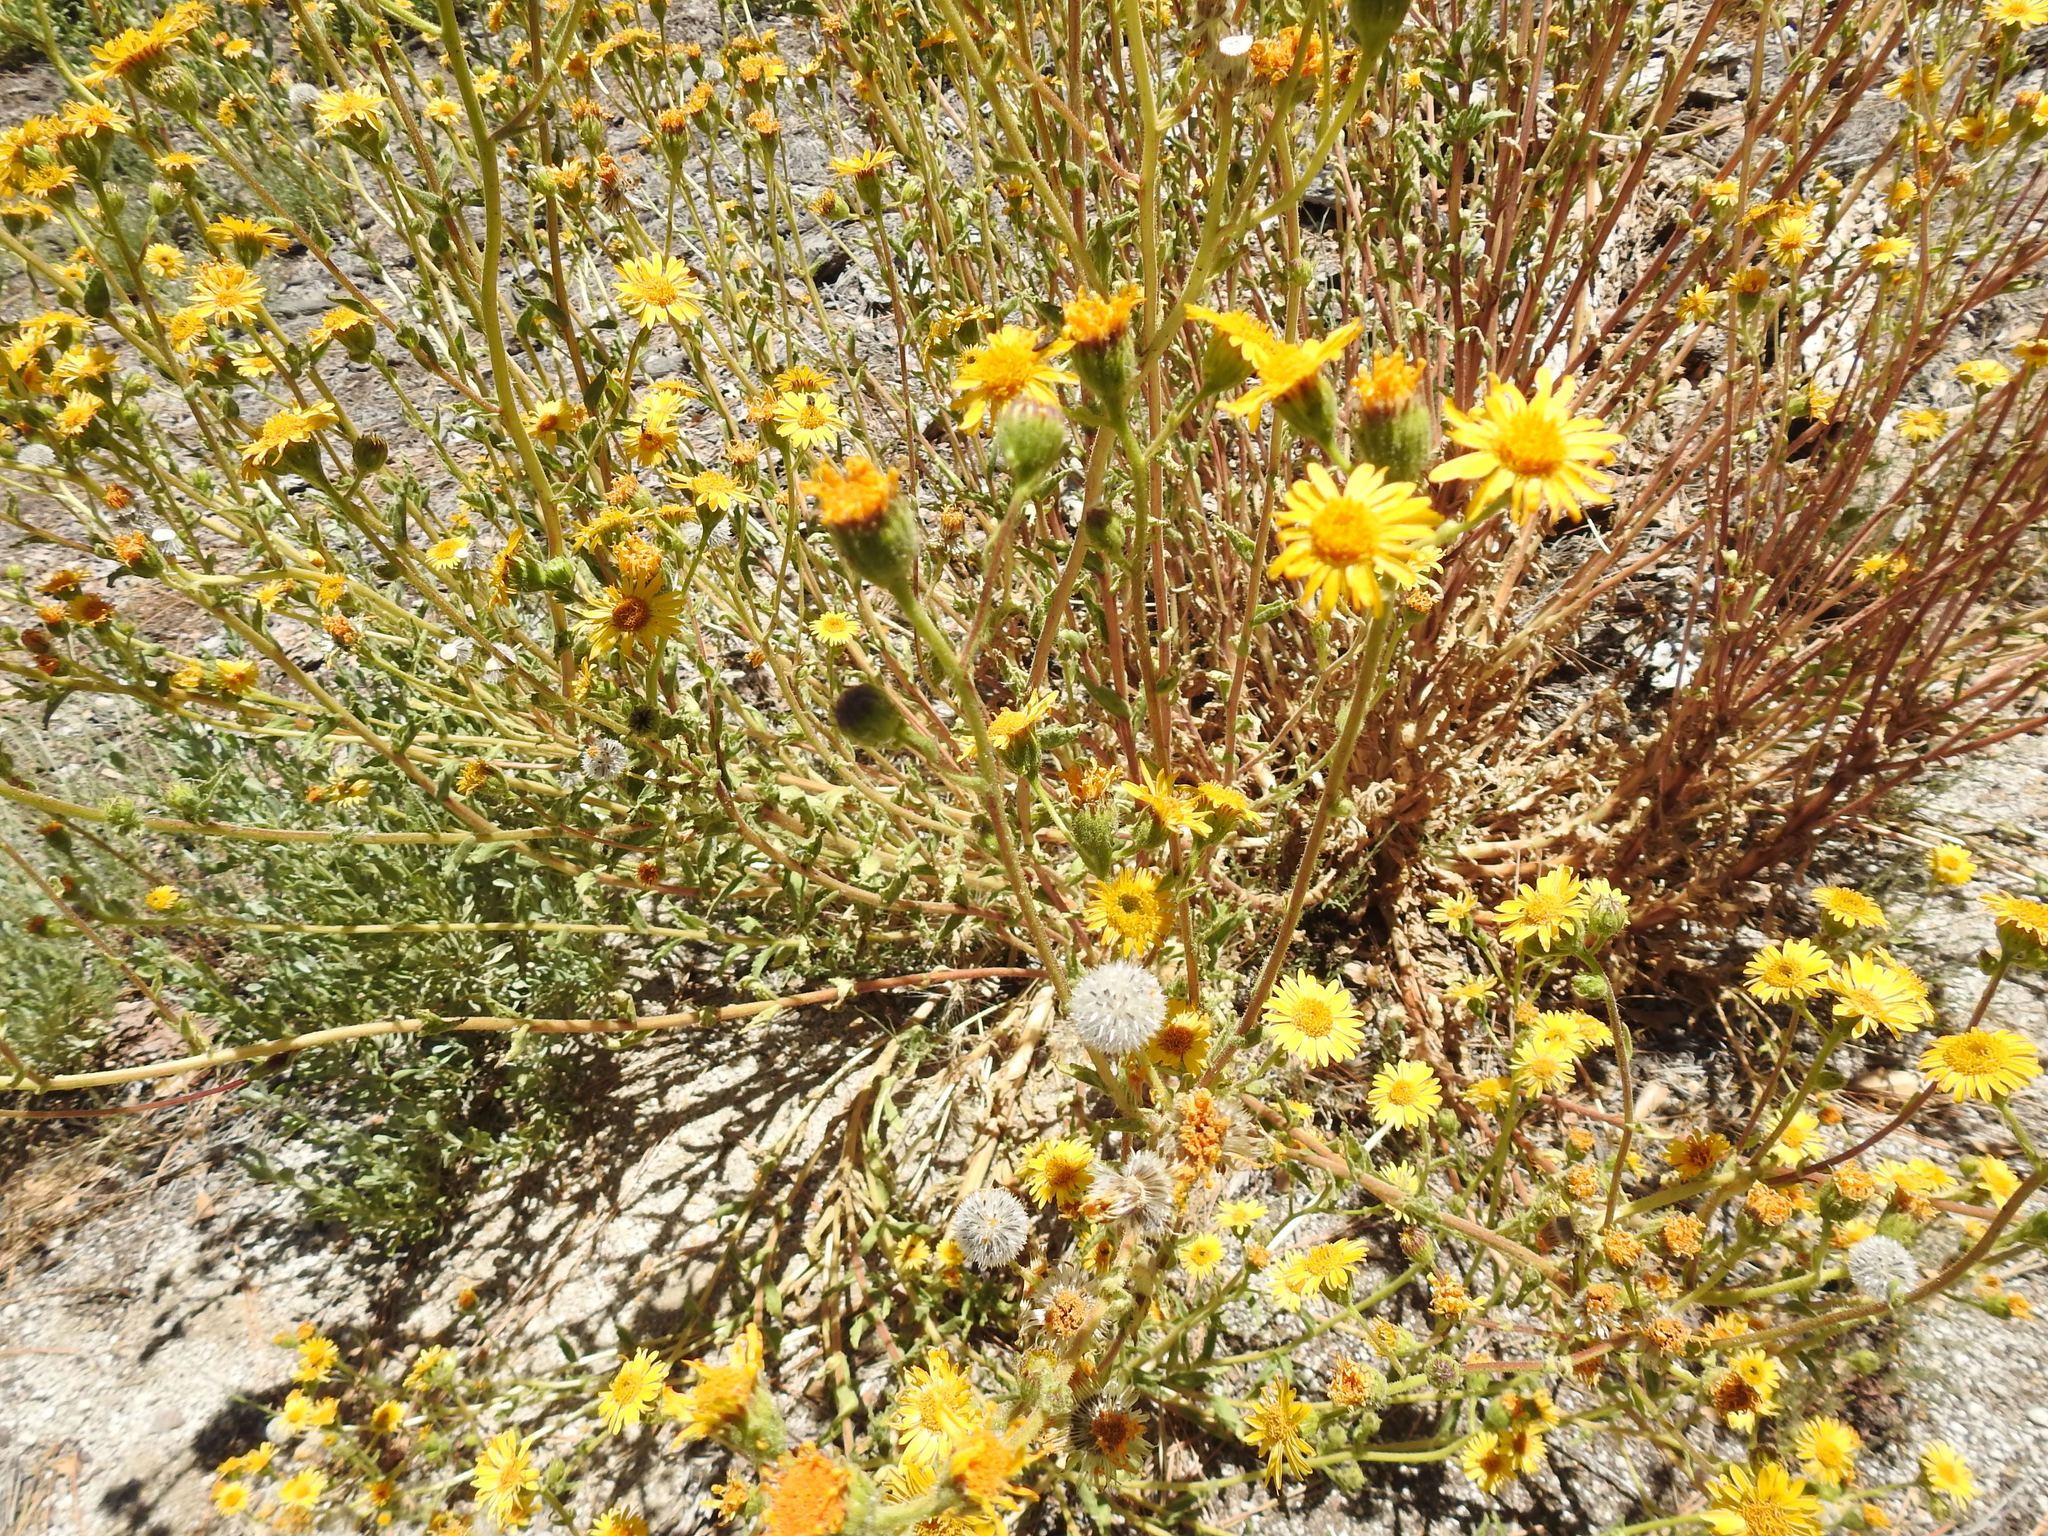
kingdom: Plantae
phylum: Tracheophyta
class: Magnoliopsida
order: Asterales
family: Asteraceae
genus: Hulsea
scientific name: Hulsea mexicana
